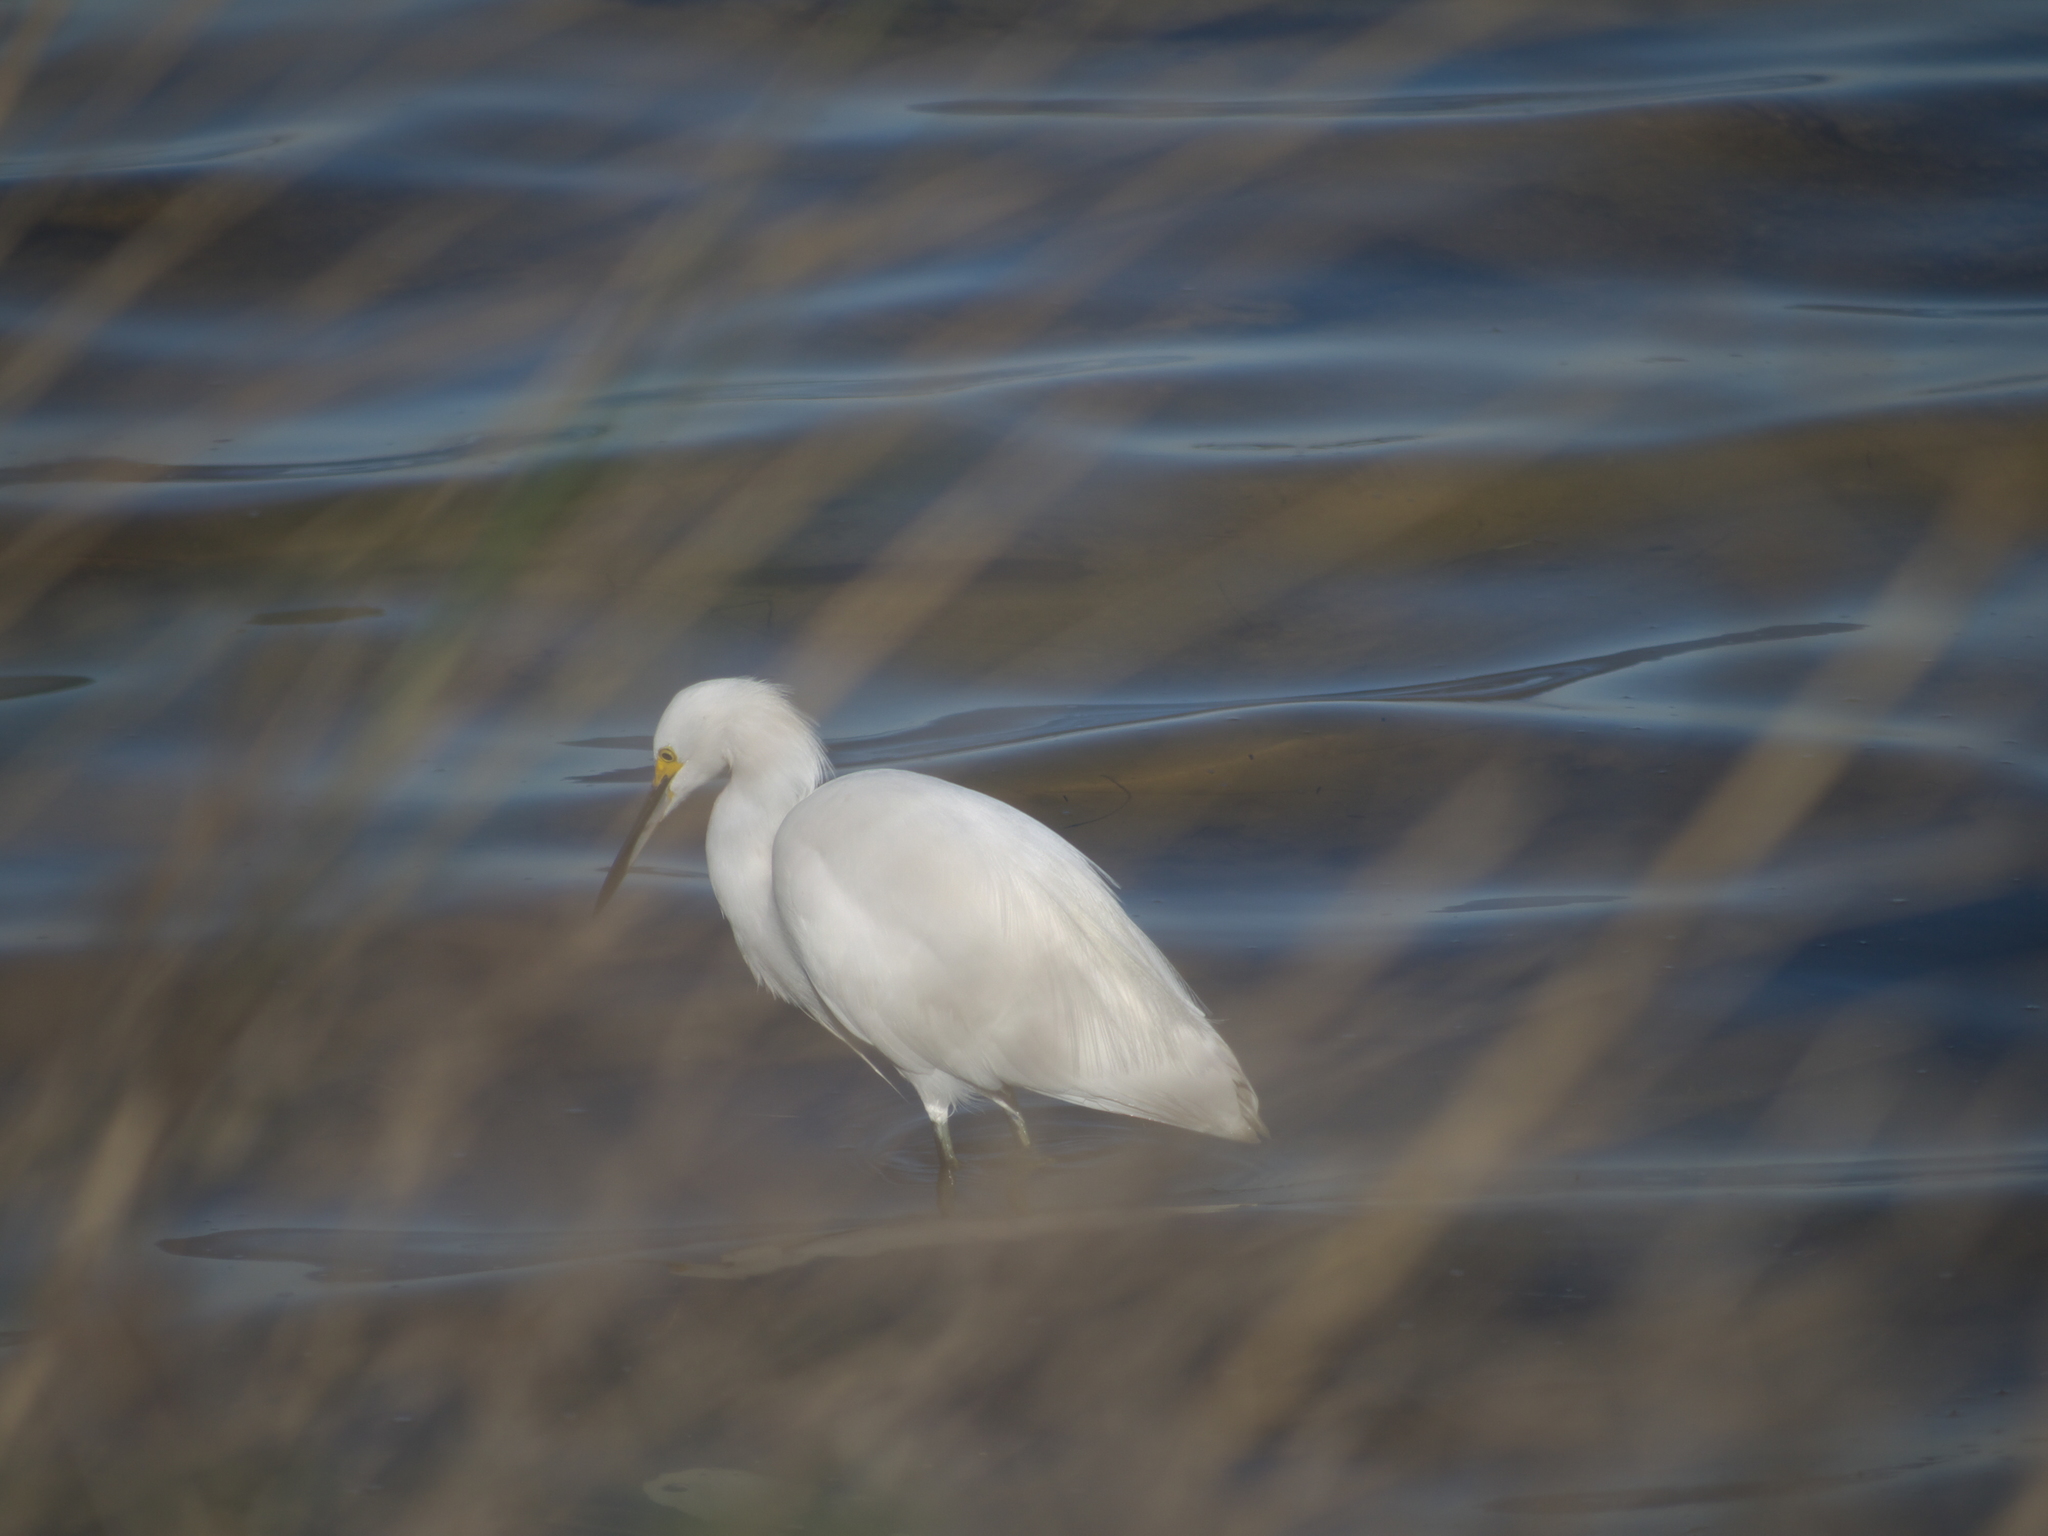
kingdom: Animalia
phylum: Chordata
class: Aves
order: Pelecaniformes
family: Ardeidae
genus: Egretta
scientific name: Egretta thula
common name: Snowy egret
